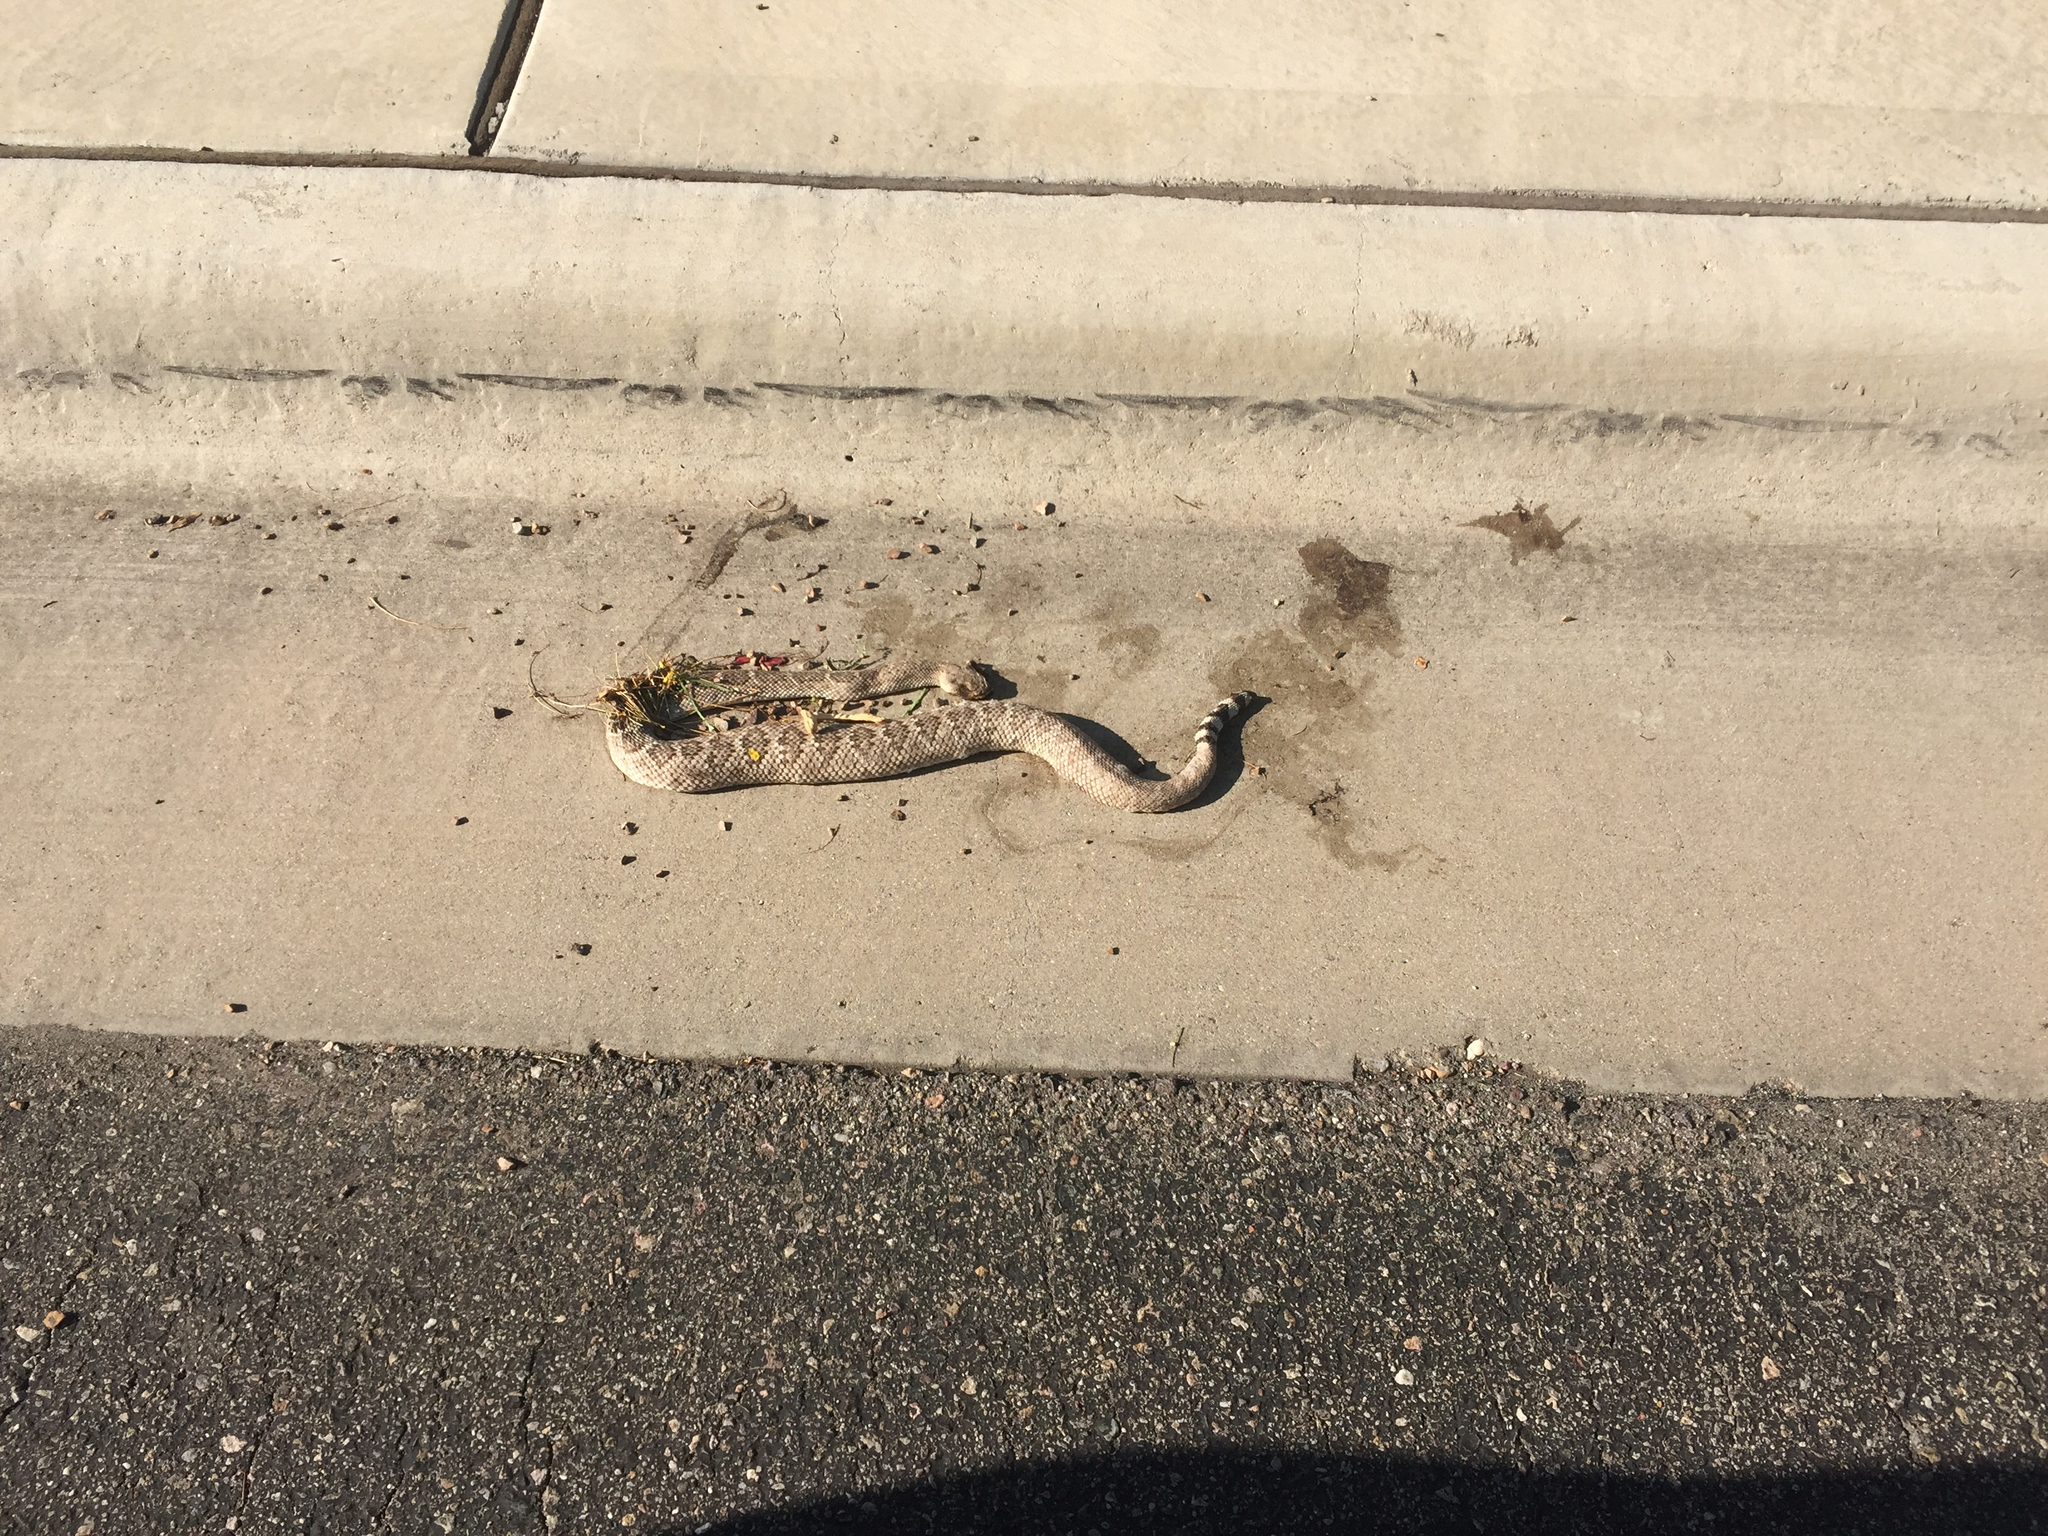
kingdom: Animalia
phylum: Chordata
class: Squamata
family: Viperidae
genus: Crotalus
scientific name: Crotalus atrox
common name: Western diamond-backed rattlesnake
